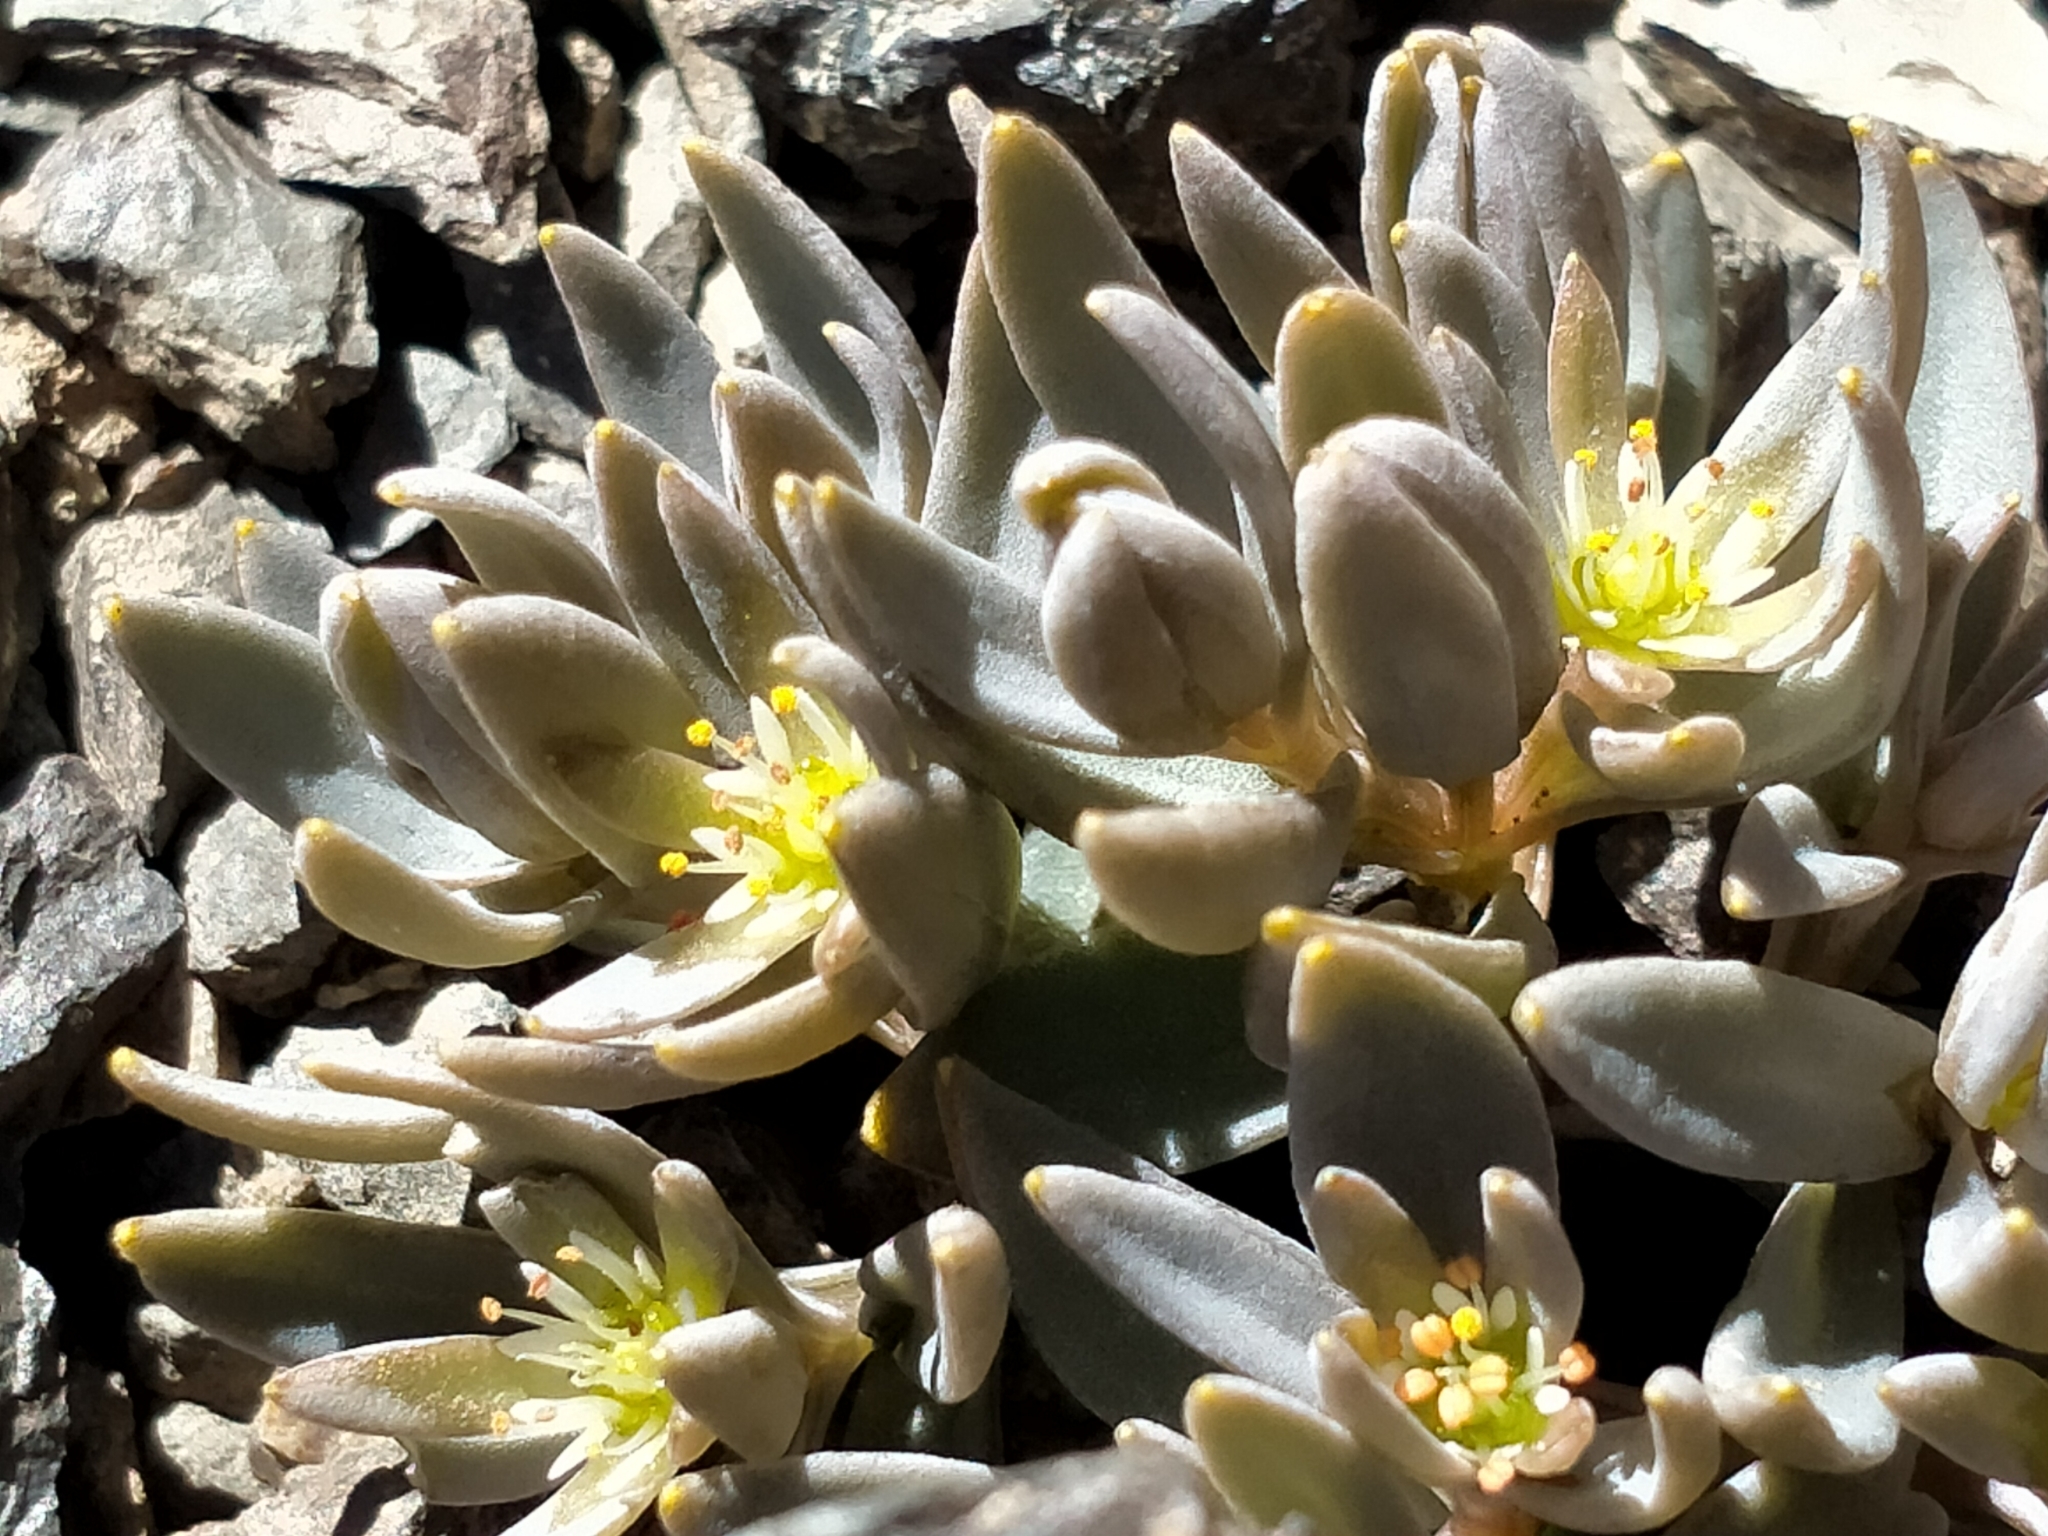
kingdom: Plantae
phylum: Tracheophyta
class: Magnoliopsida
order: Caryophyllales
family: Caryophyllaceae
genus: Stellaria
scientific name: Stellaria roughii
